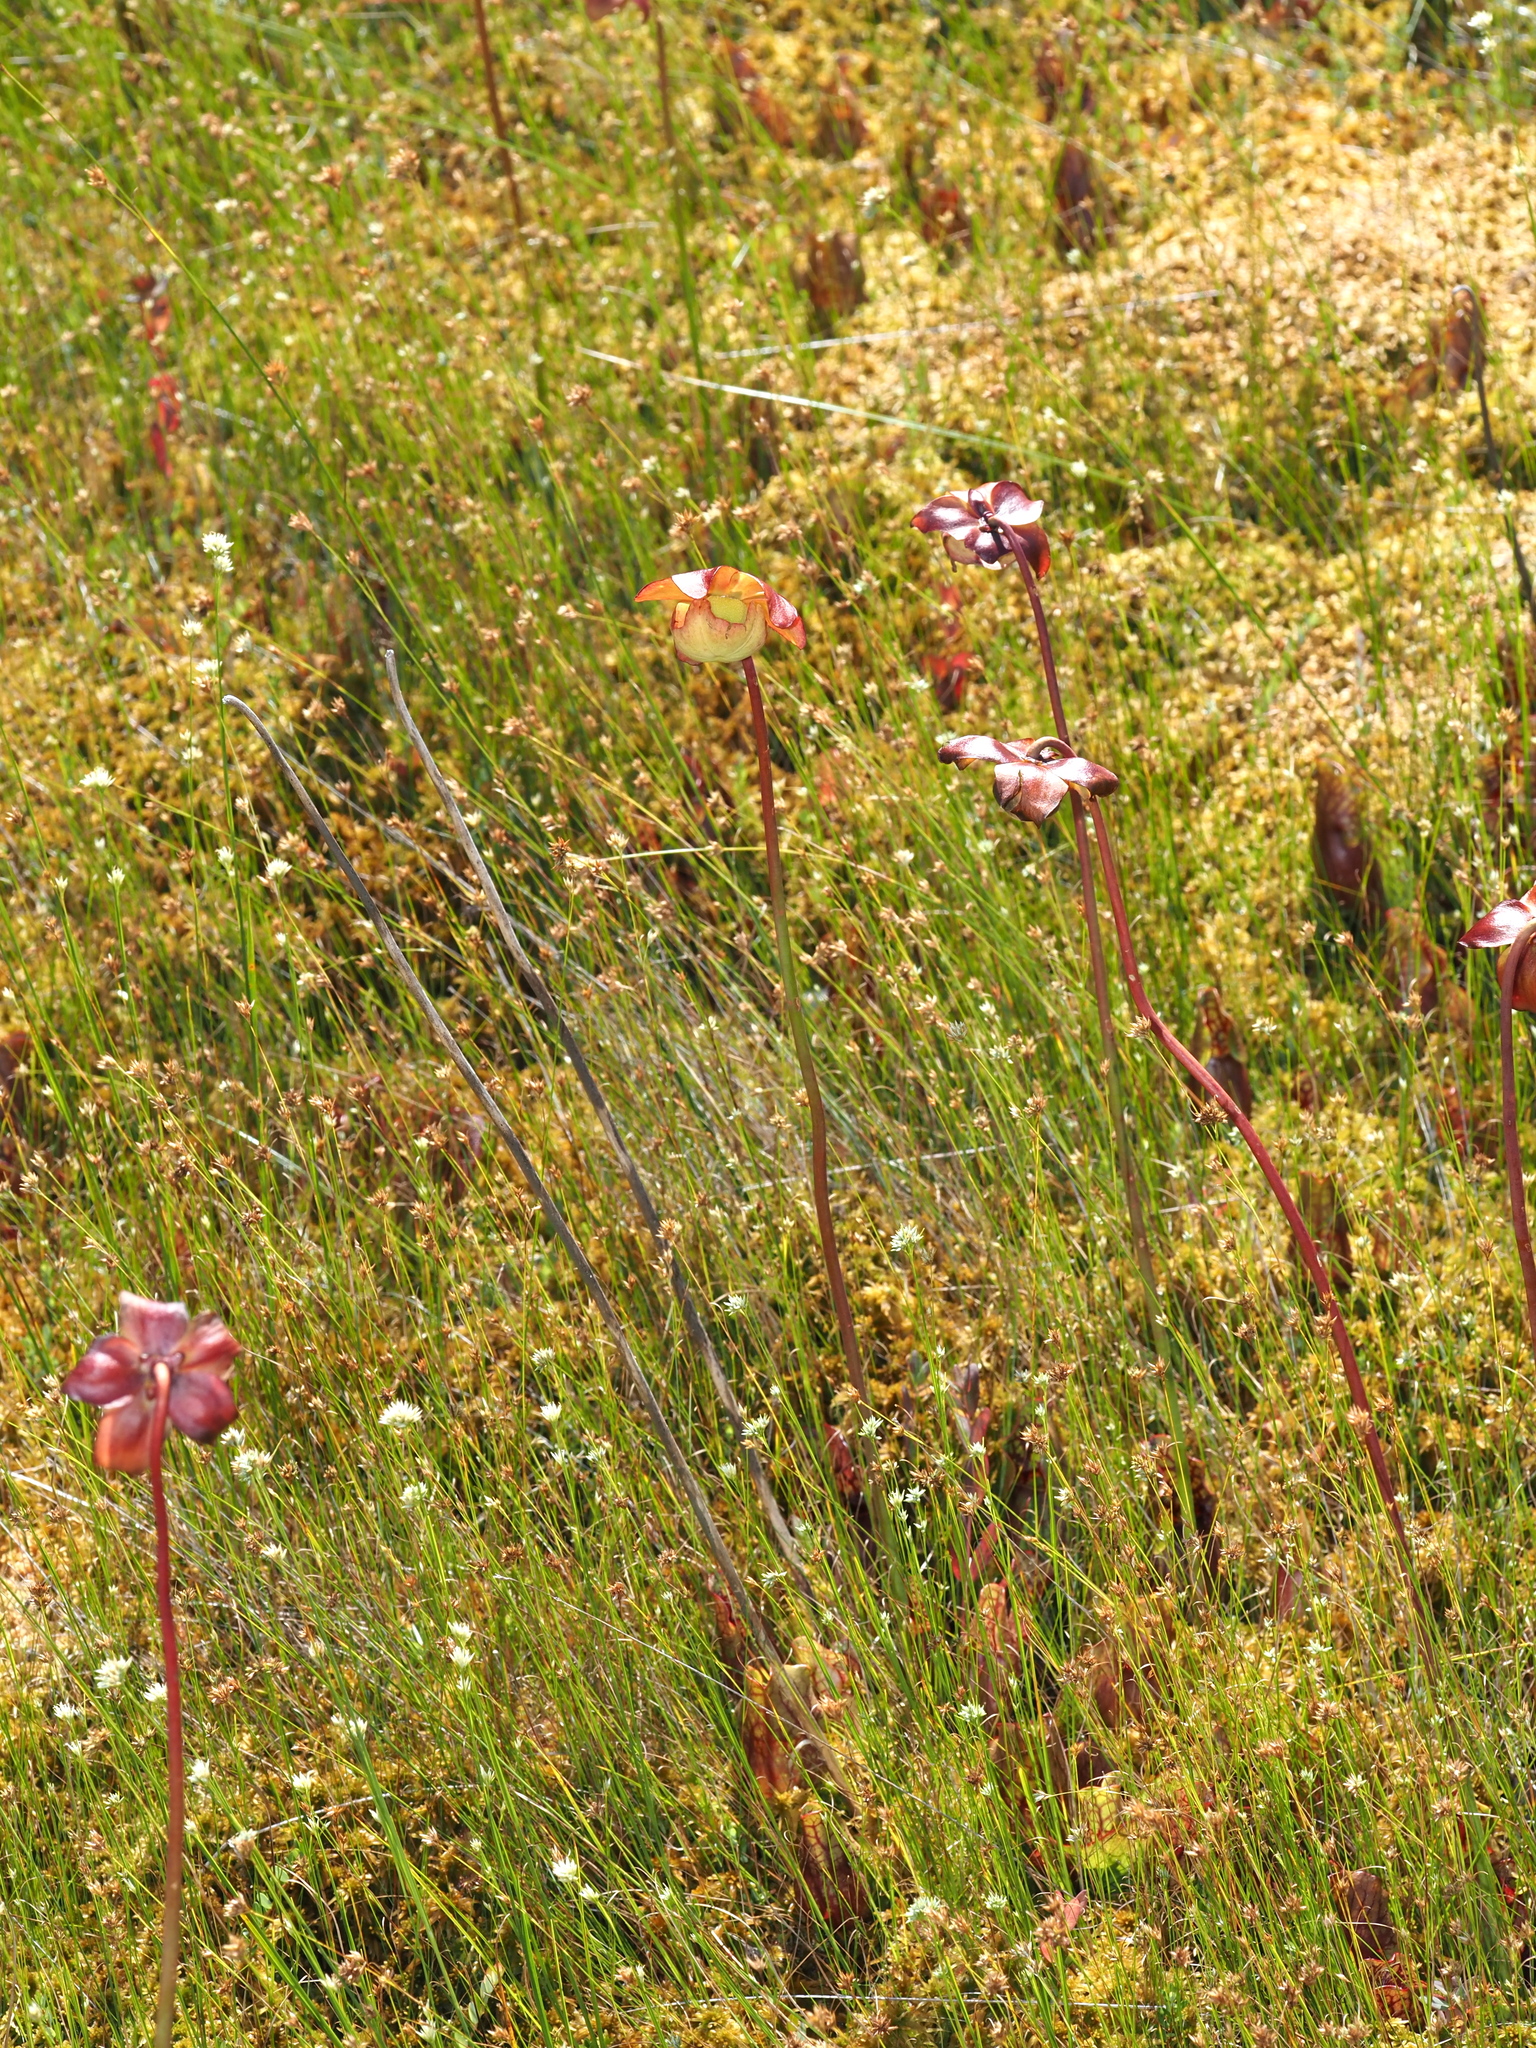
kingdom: Plantae
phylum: Tracheophyta
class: Magnoliopsida
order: Ericales
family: Sarraceniaceae
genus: Sarracenia
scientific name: Sarracenia purpurea
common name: Pitcherplant
